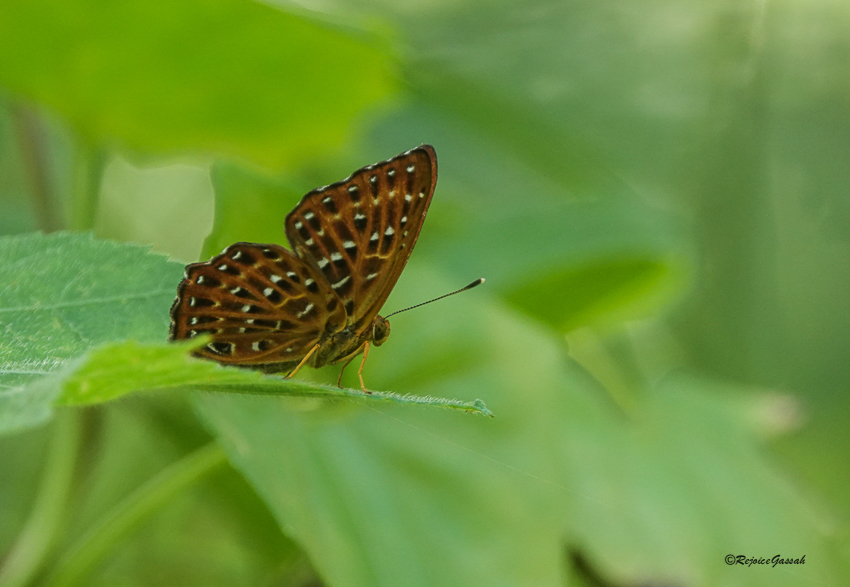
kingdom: Animalia
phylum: Arthropoda
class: Insecta
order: Lepidoptera
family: Riodinidae
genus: Zemeros
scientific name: Zemeros flegyas
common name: Punchinello
